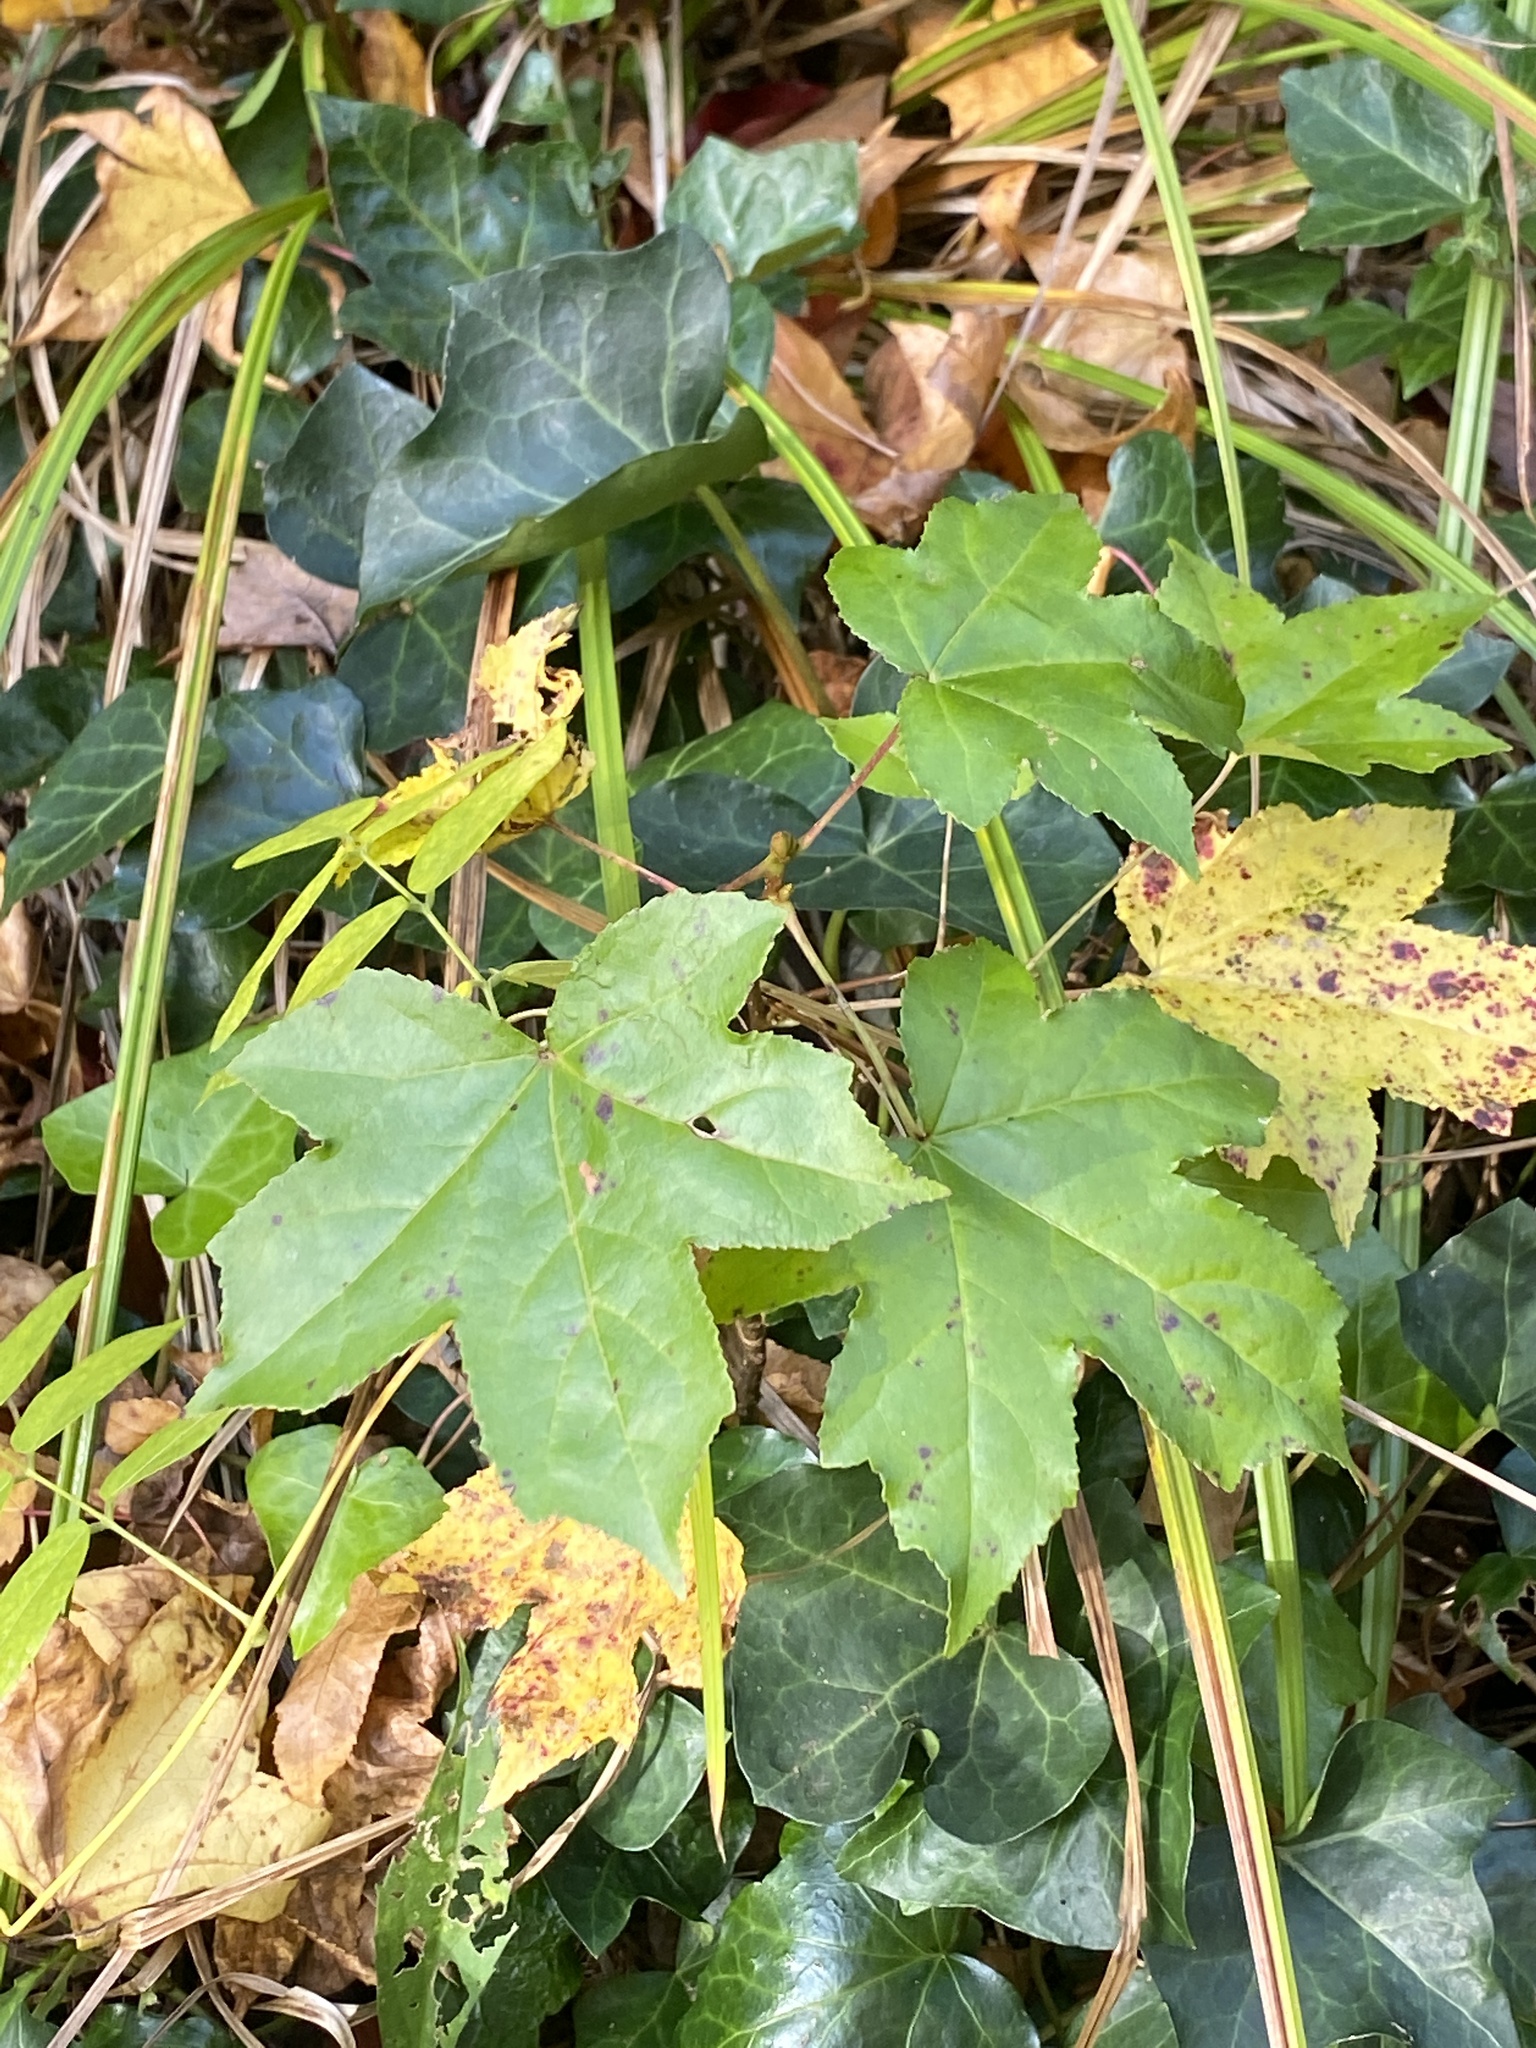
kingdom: Plantae
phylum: Tracheophyta
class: Magnoliopsida
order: Saxifragales
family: Altingiaceae
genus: Liquidambar
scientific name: Liquidambar styraciflua
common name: Sweet gum
